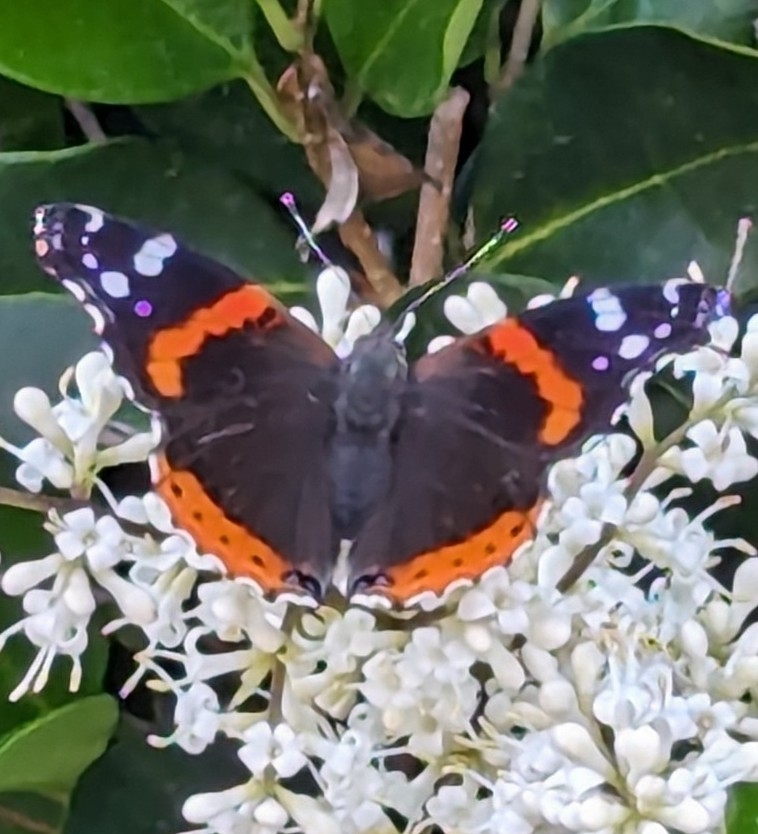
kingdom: Animalia
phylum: Arthropoda
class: Insecta
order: Lepidoptera
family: Nymphalidae
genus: Vanessa
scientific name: Vanessa atalanta
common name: Red admiral
